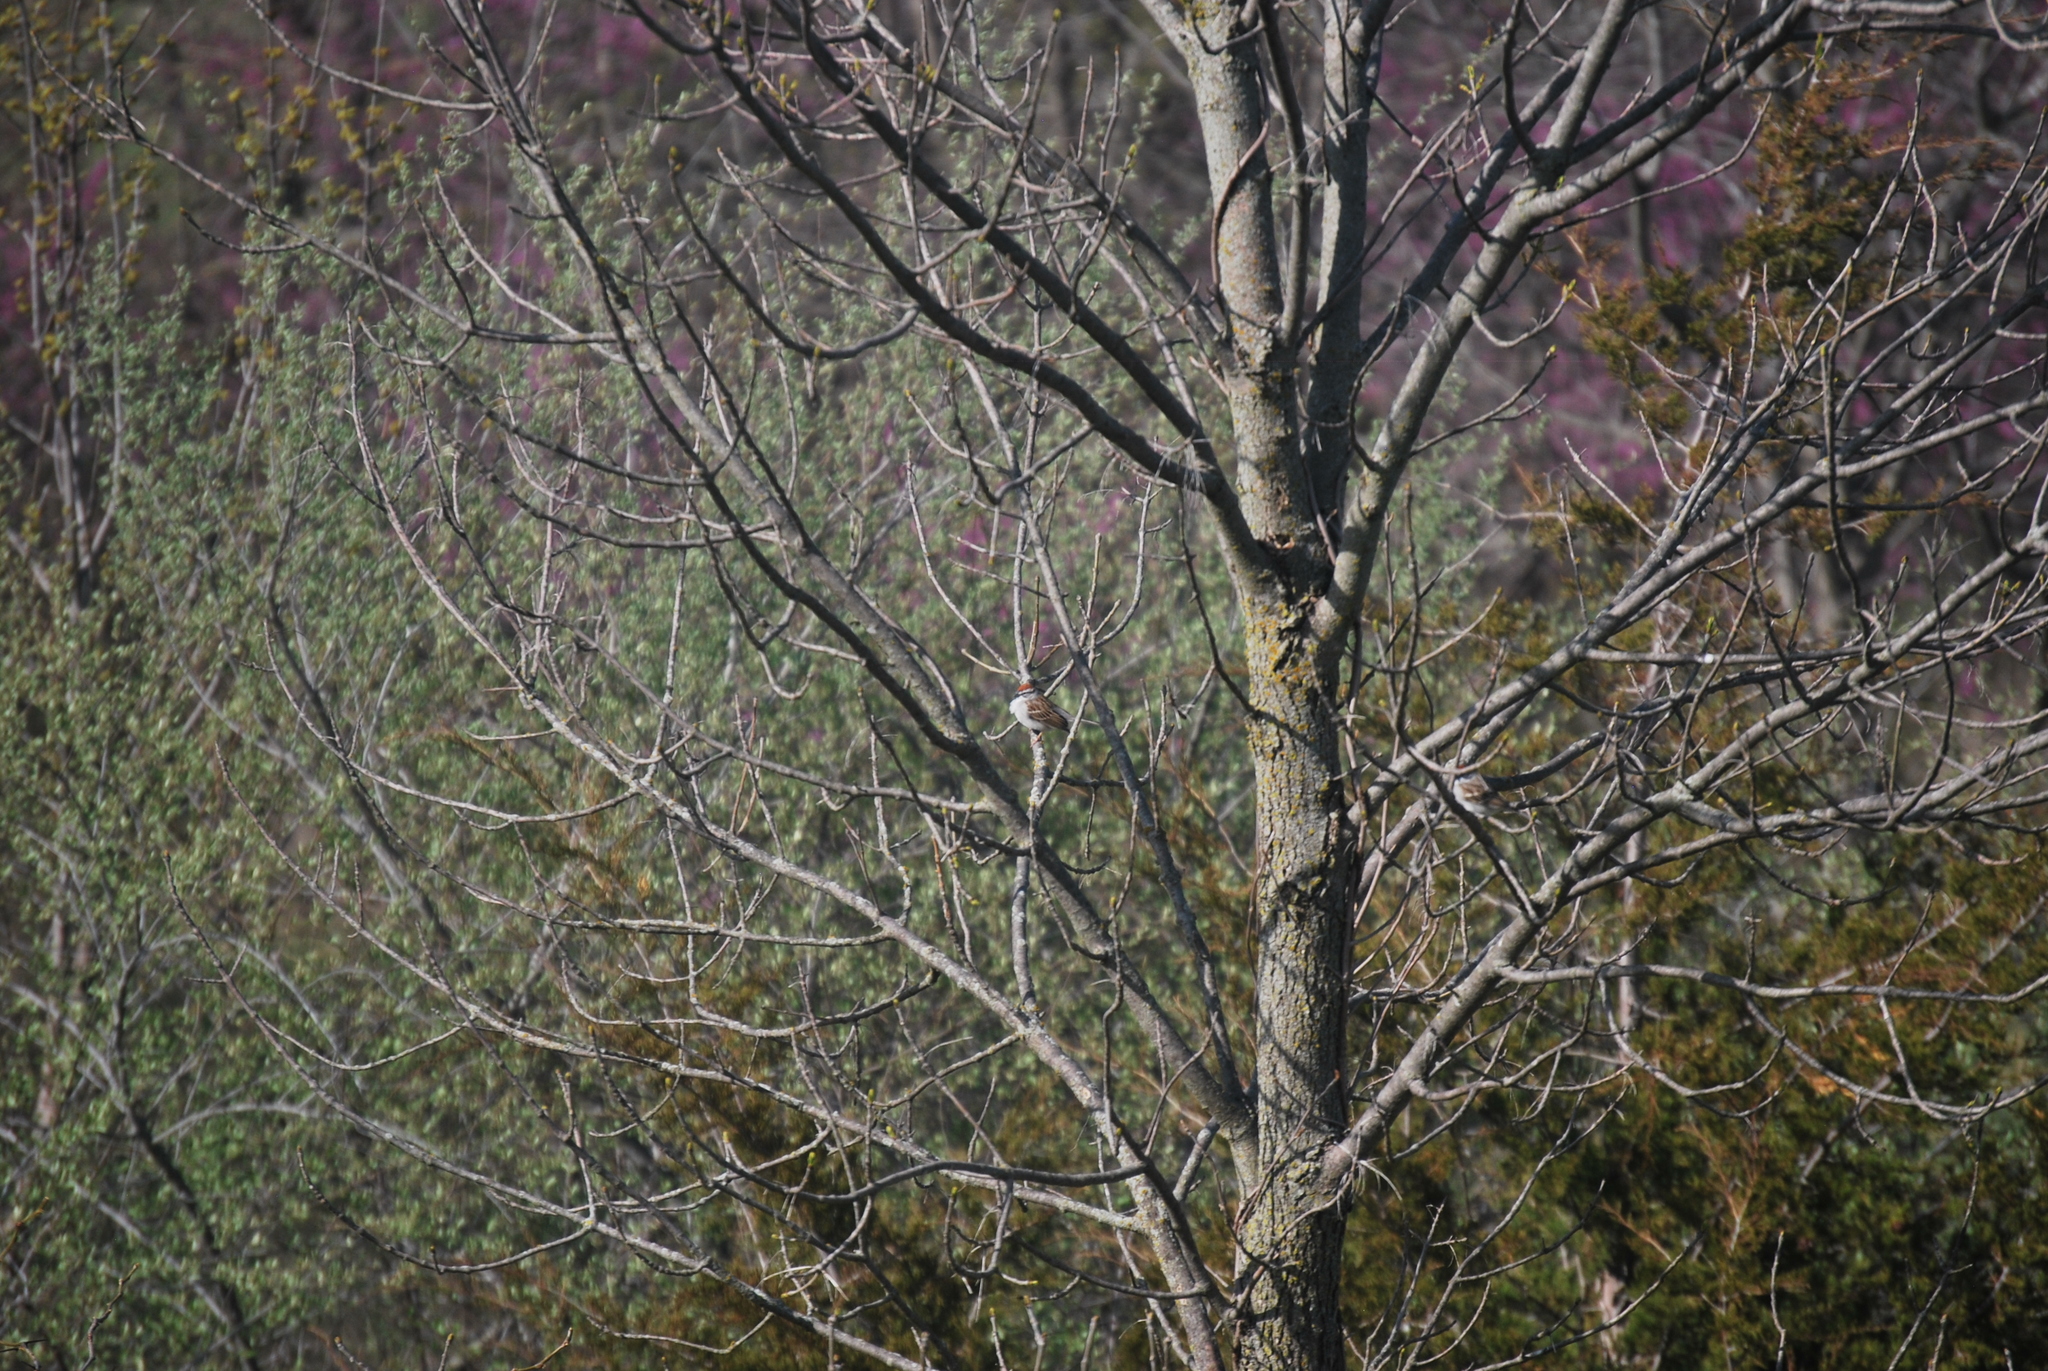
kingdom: Animalia
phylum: Chordata
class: Aves
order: Passeriformes
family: Passerellidae
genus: Spizella
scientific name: Spizella passerina
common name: Chipping sparrow
